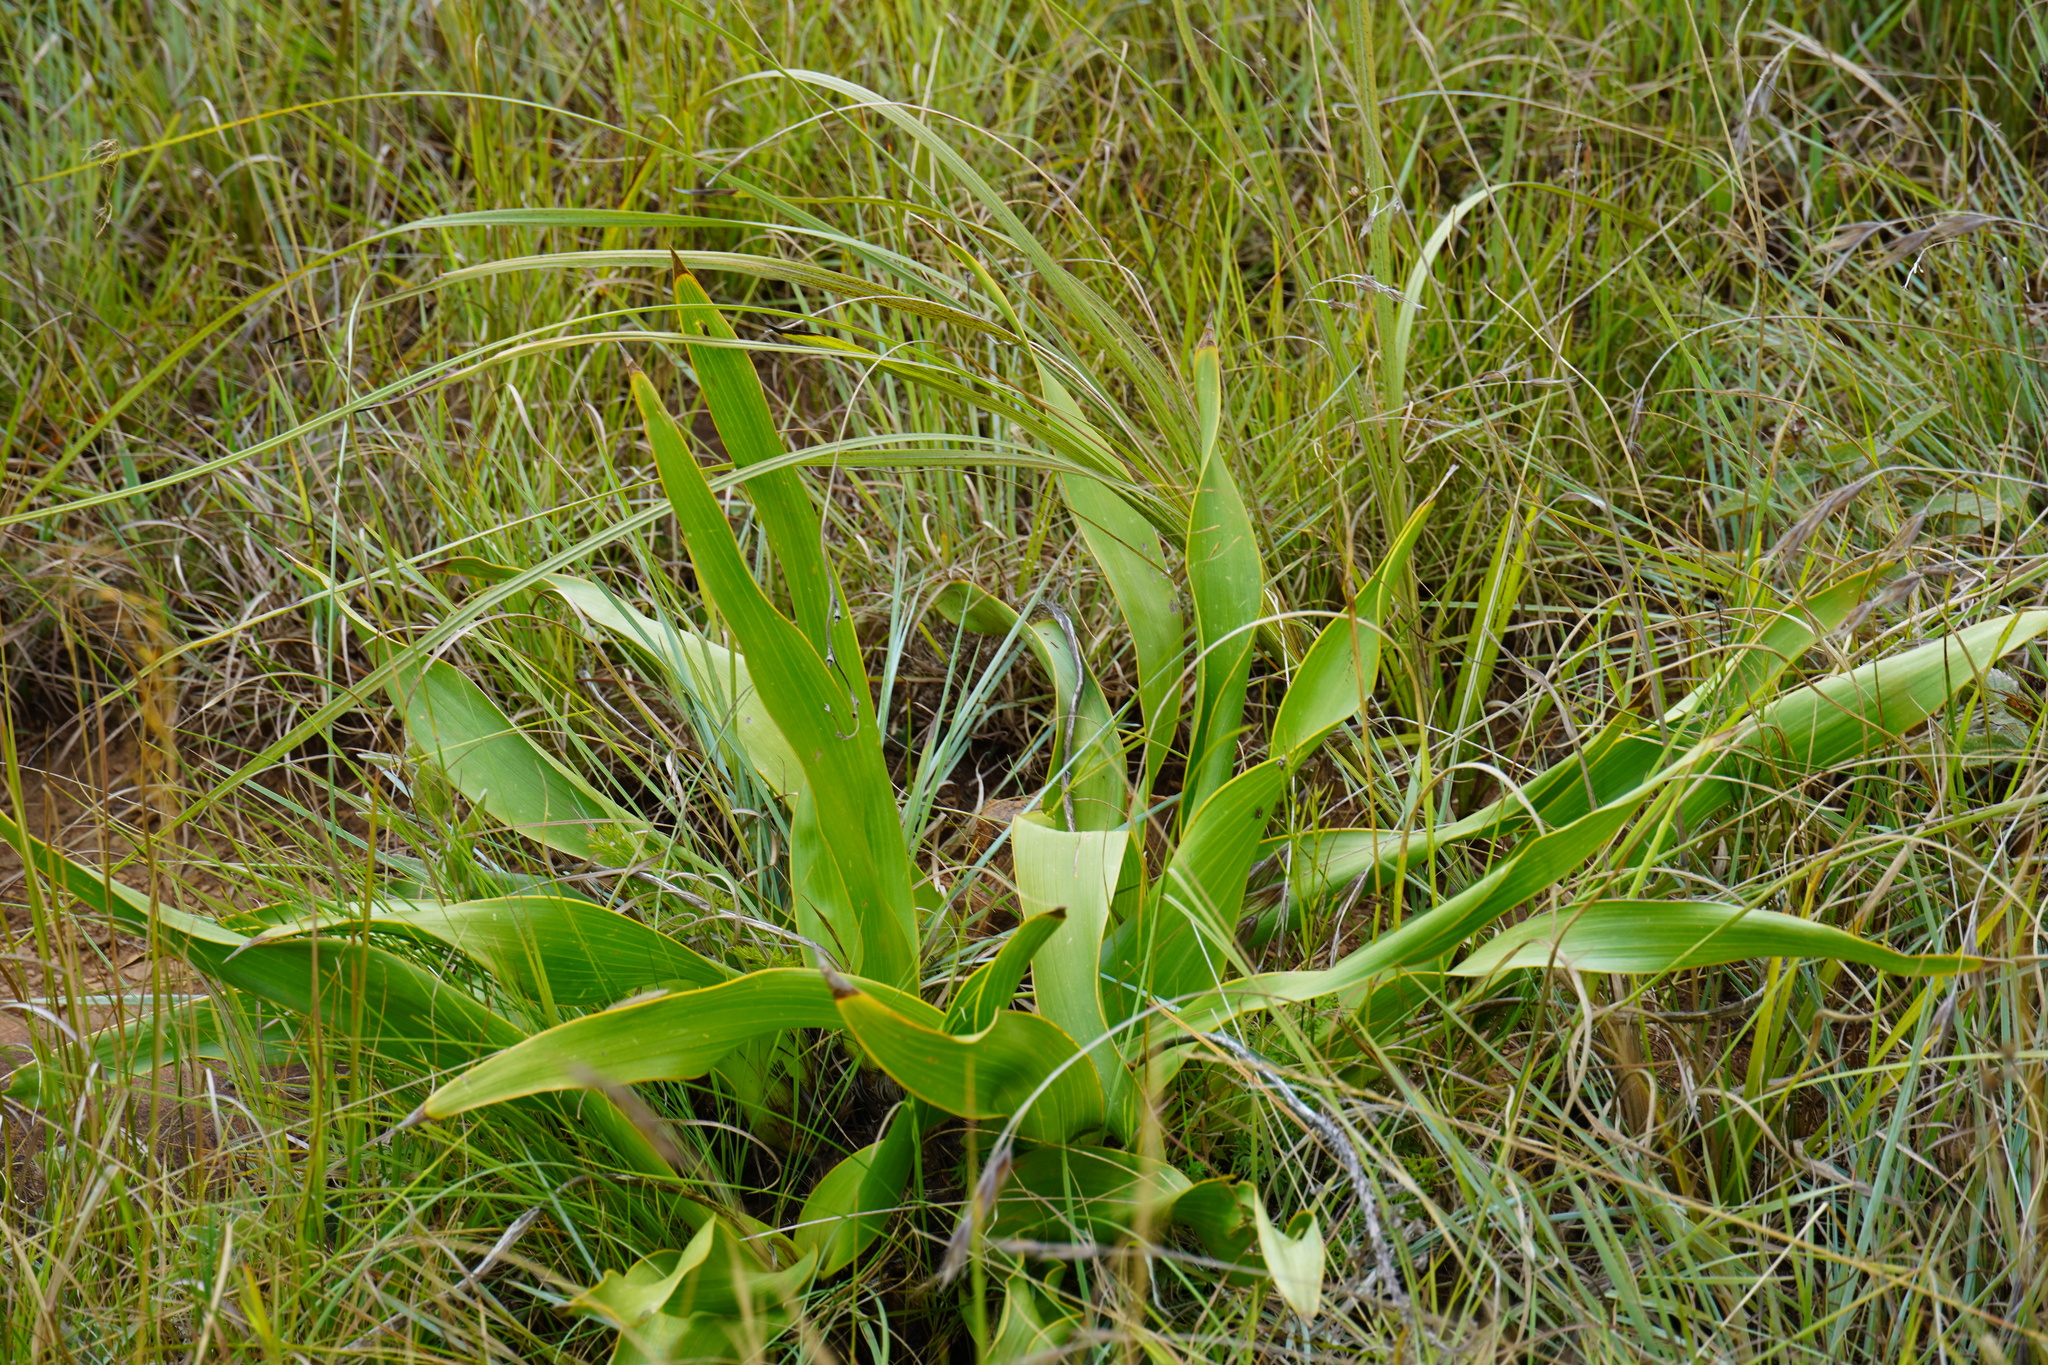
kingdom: Plantae
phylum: Tracheophyta
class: Liliopsida
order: Asparagales
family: Asparagaceae
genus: Schizocarphus
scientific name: Schizocarphus nervosus
